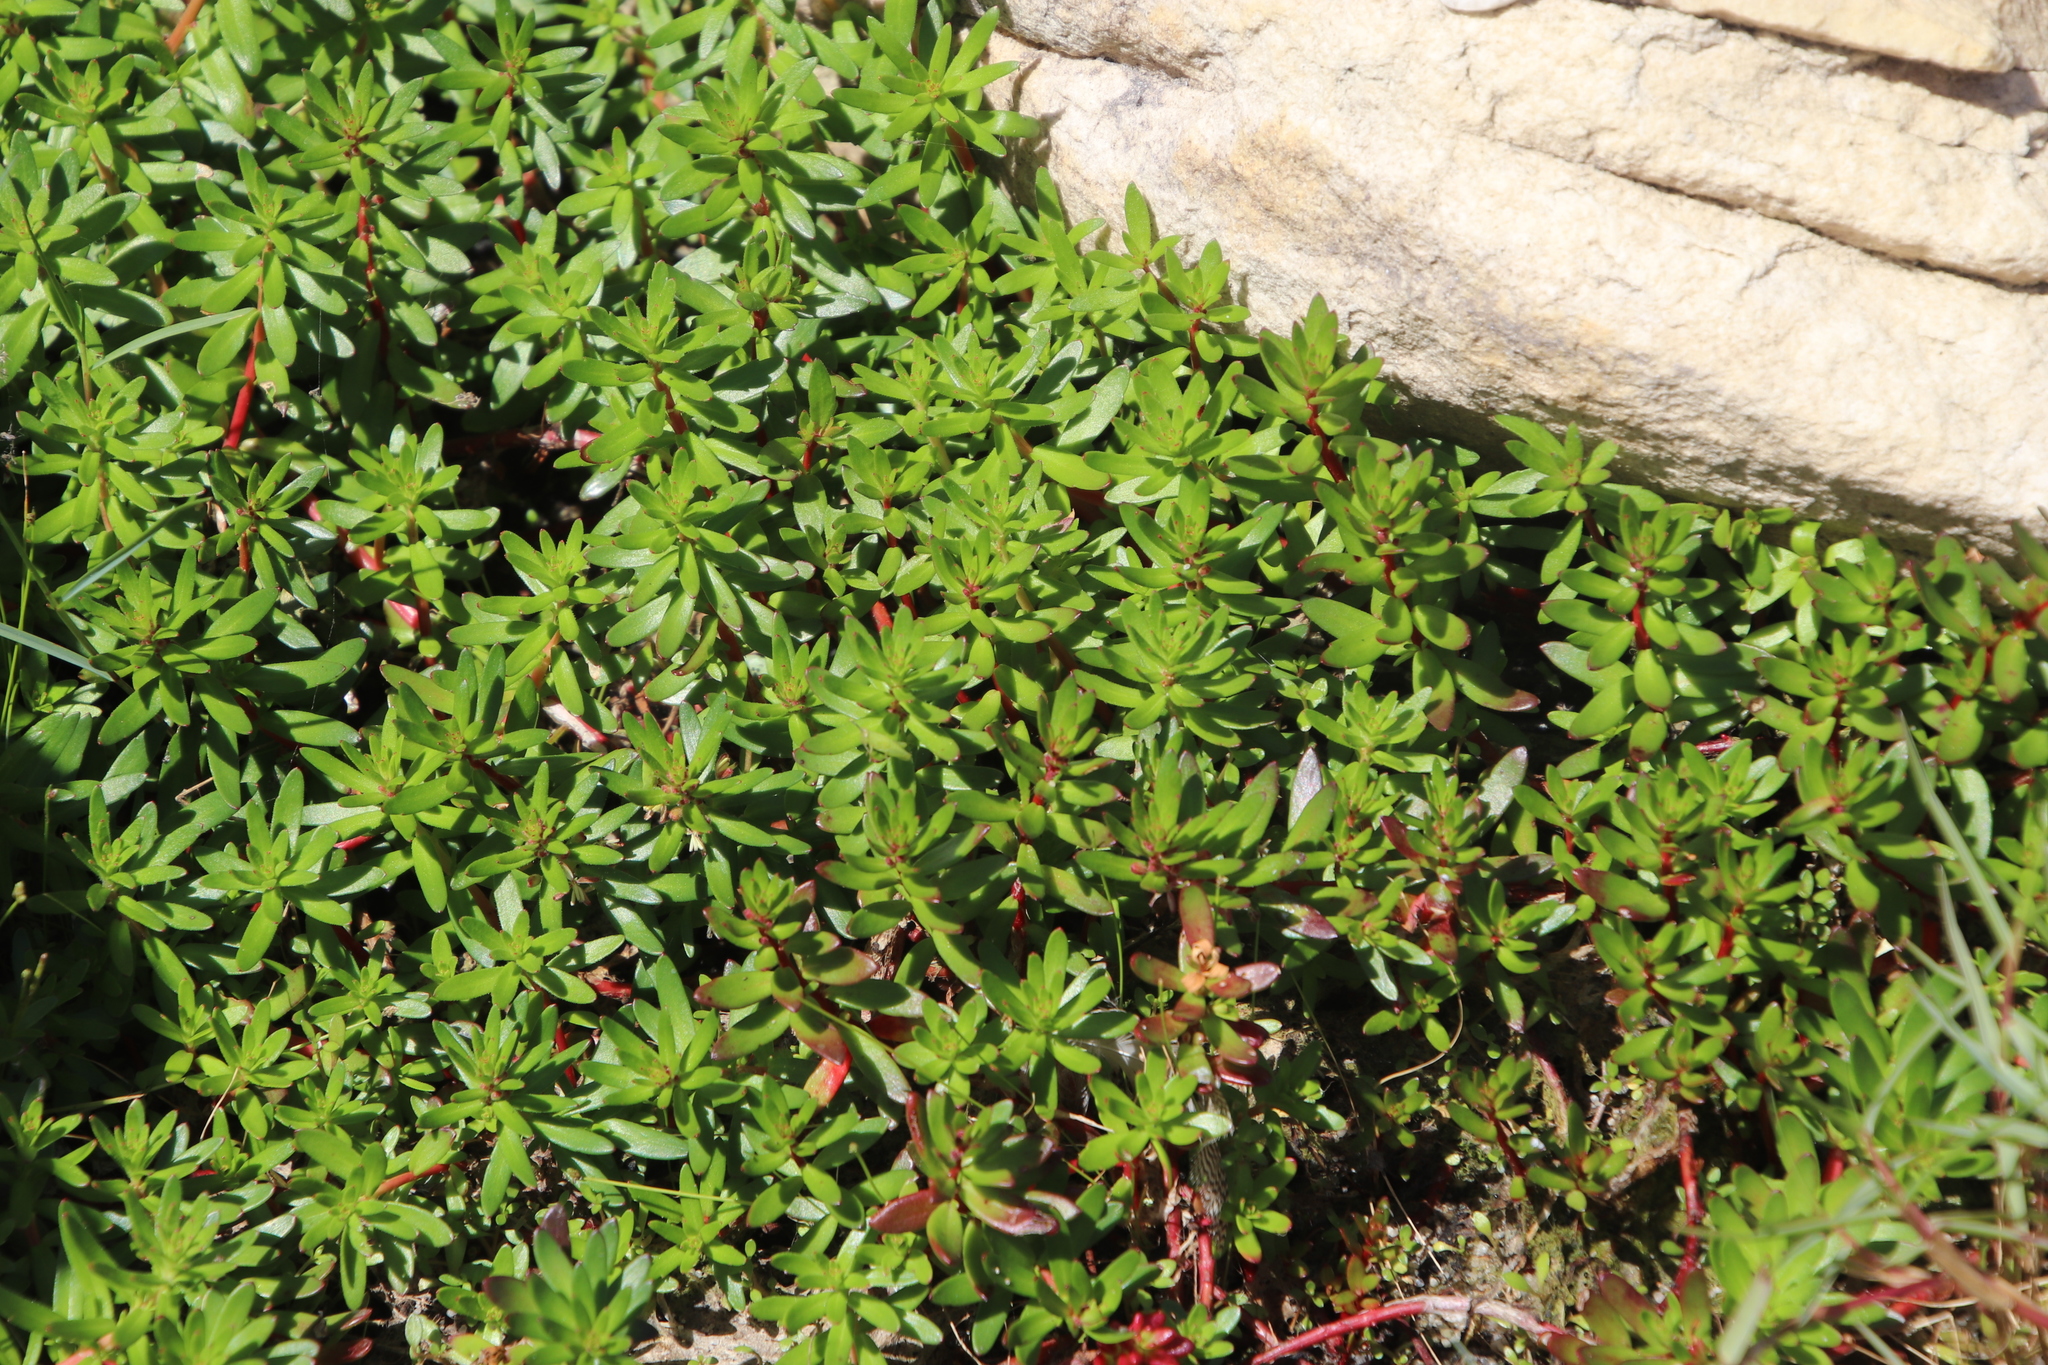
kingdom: Plantae
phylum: Tracheophyta
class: Magnoliopsida
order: Saxifragales
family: Haloragaceae
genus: Laurembergia
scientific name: Laurembergia repens
